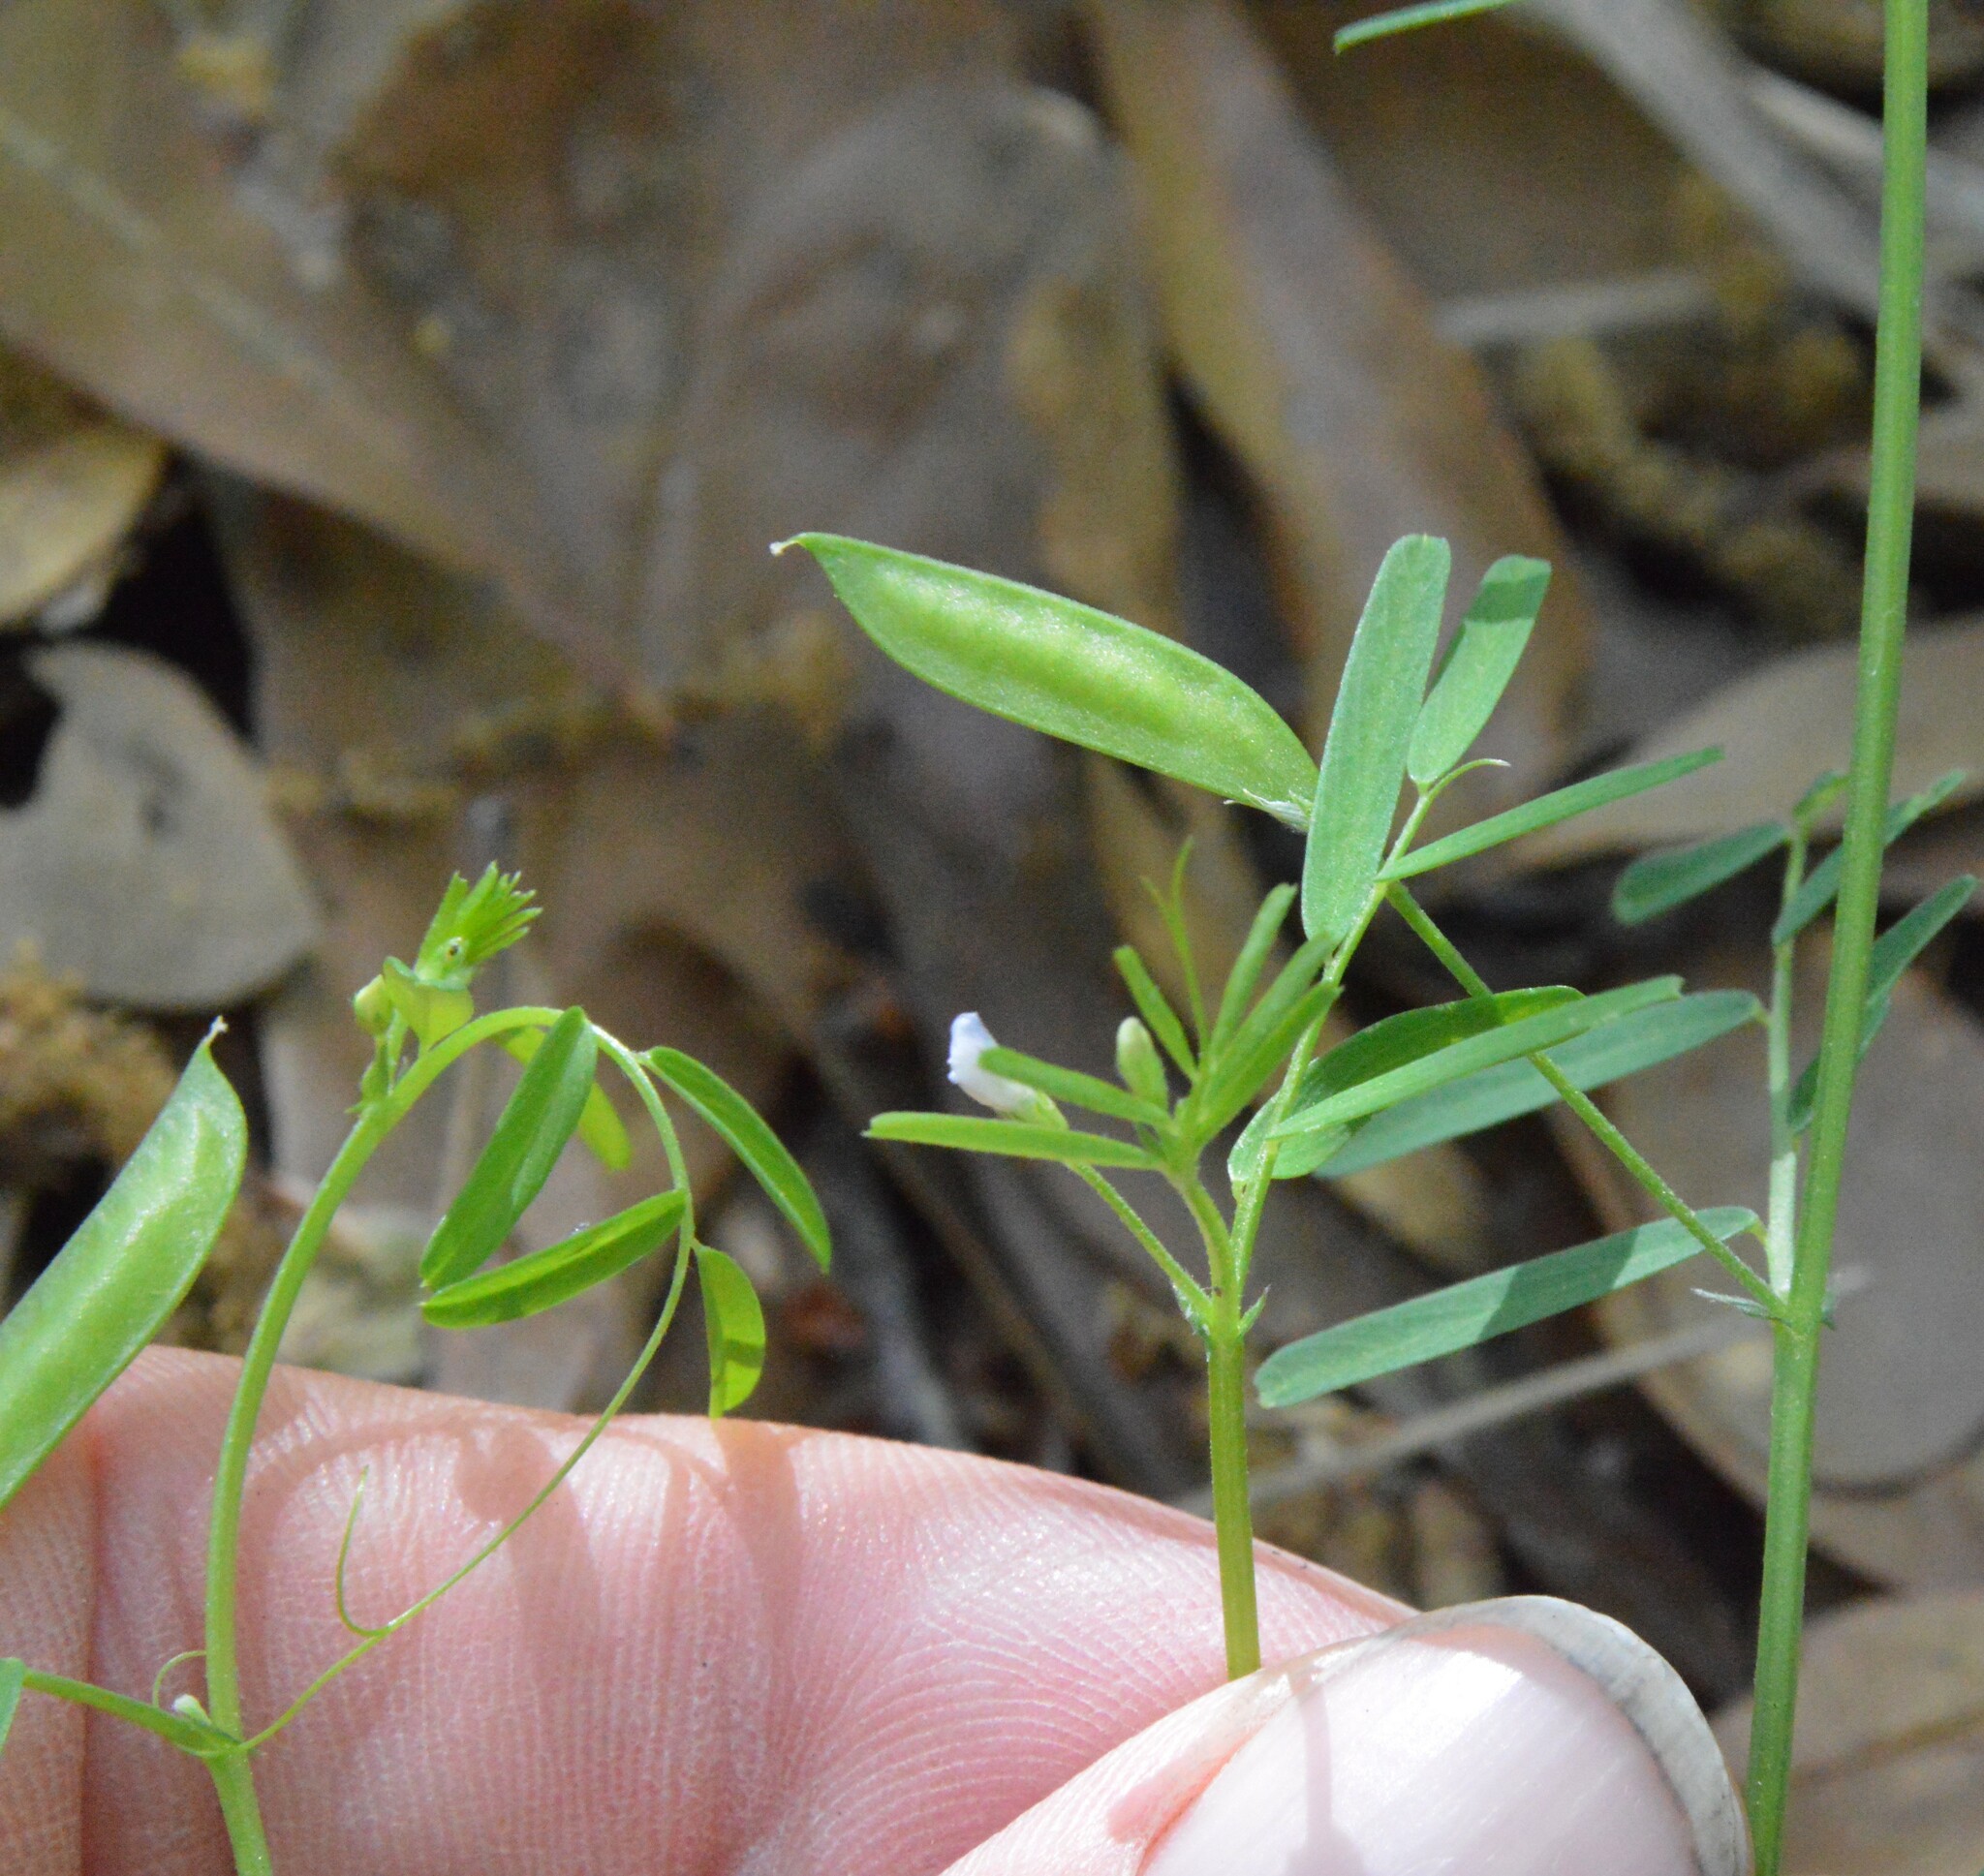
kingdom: Plantae
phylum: Tracheophyta
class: Magnoliopsida
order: Fabales
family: Fabaceae
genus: Vicia
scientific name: Vicia minutiflora
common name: Pygmy-flower vetch
